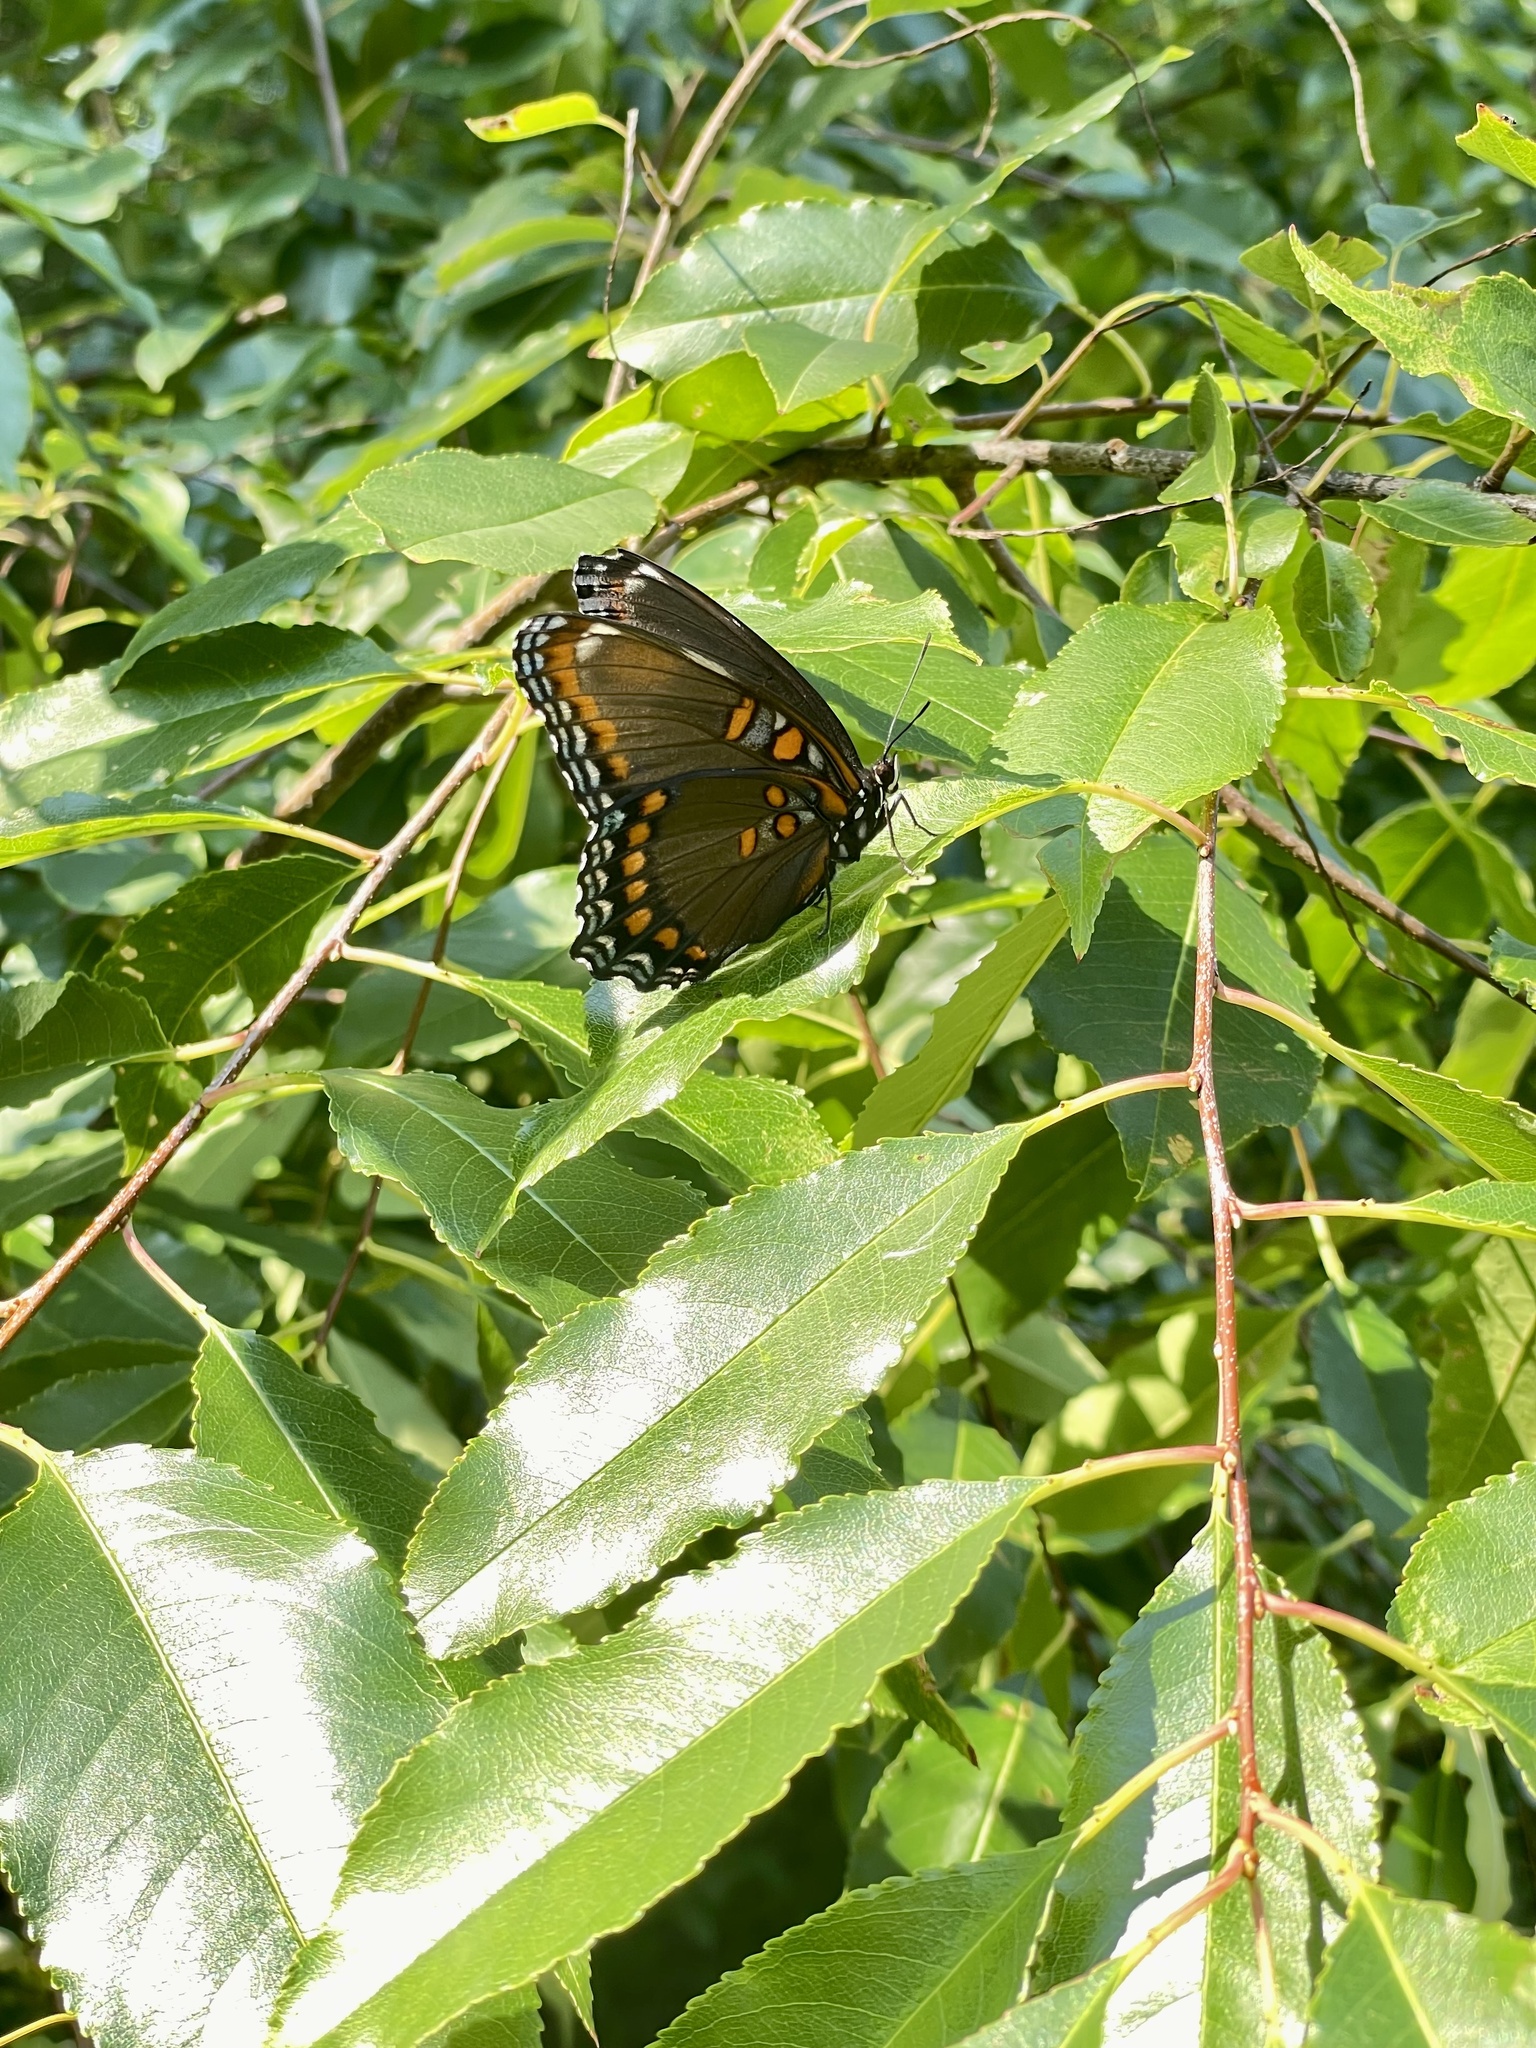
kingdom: Animalia
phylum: Arthropoda
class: Insecta
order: Lepidoptera
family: Nymphalidae
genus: Limenitis
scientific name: Limenitis arthemis
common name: Red-spotted admiral
